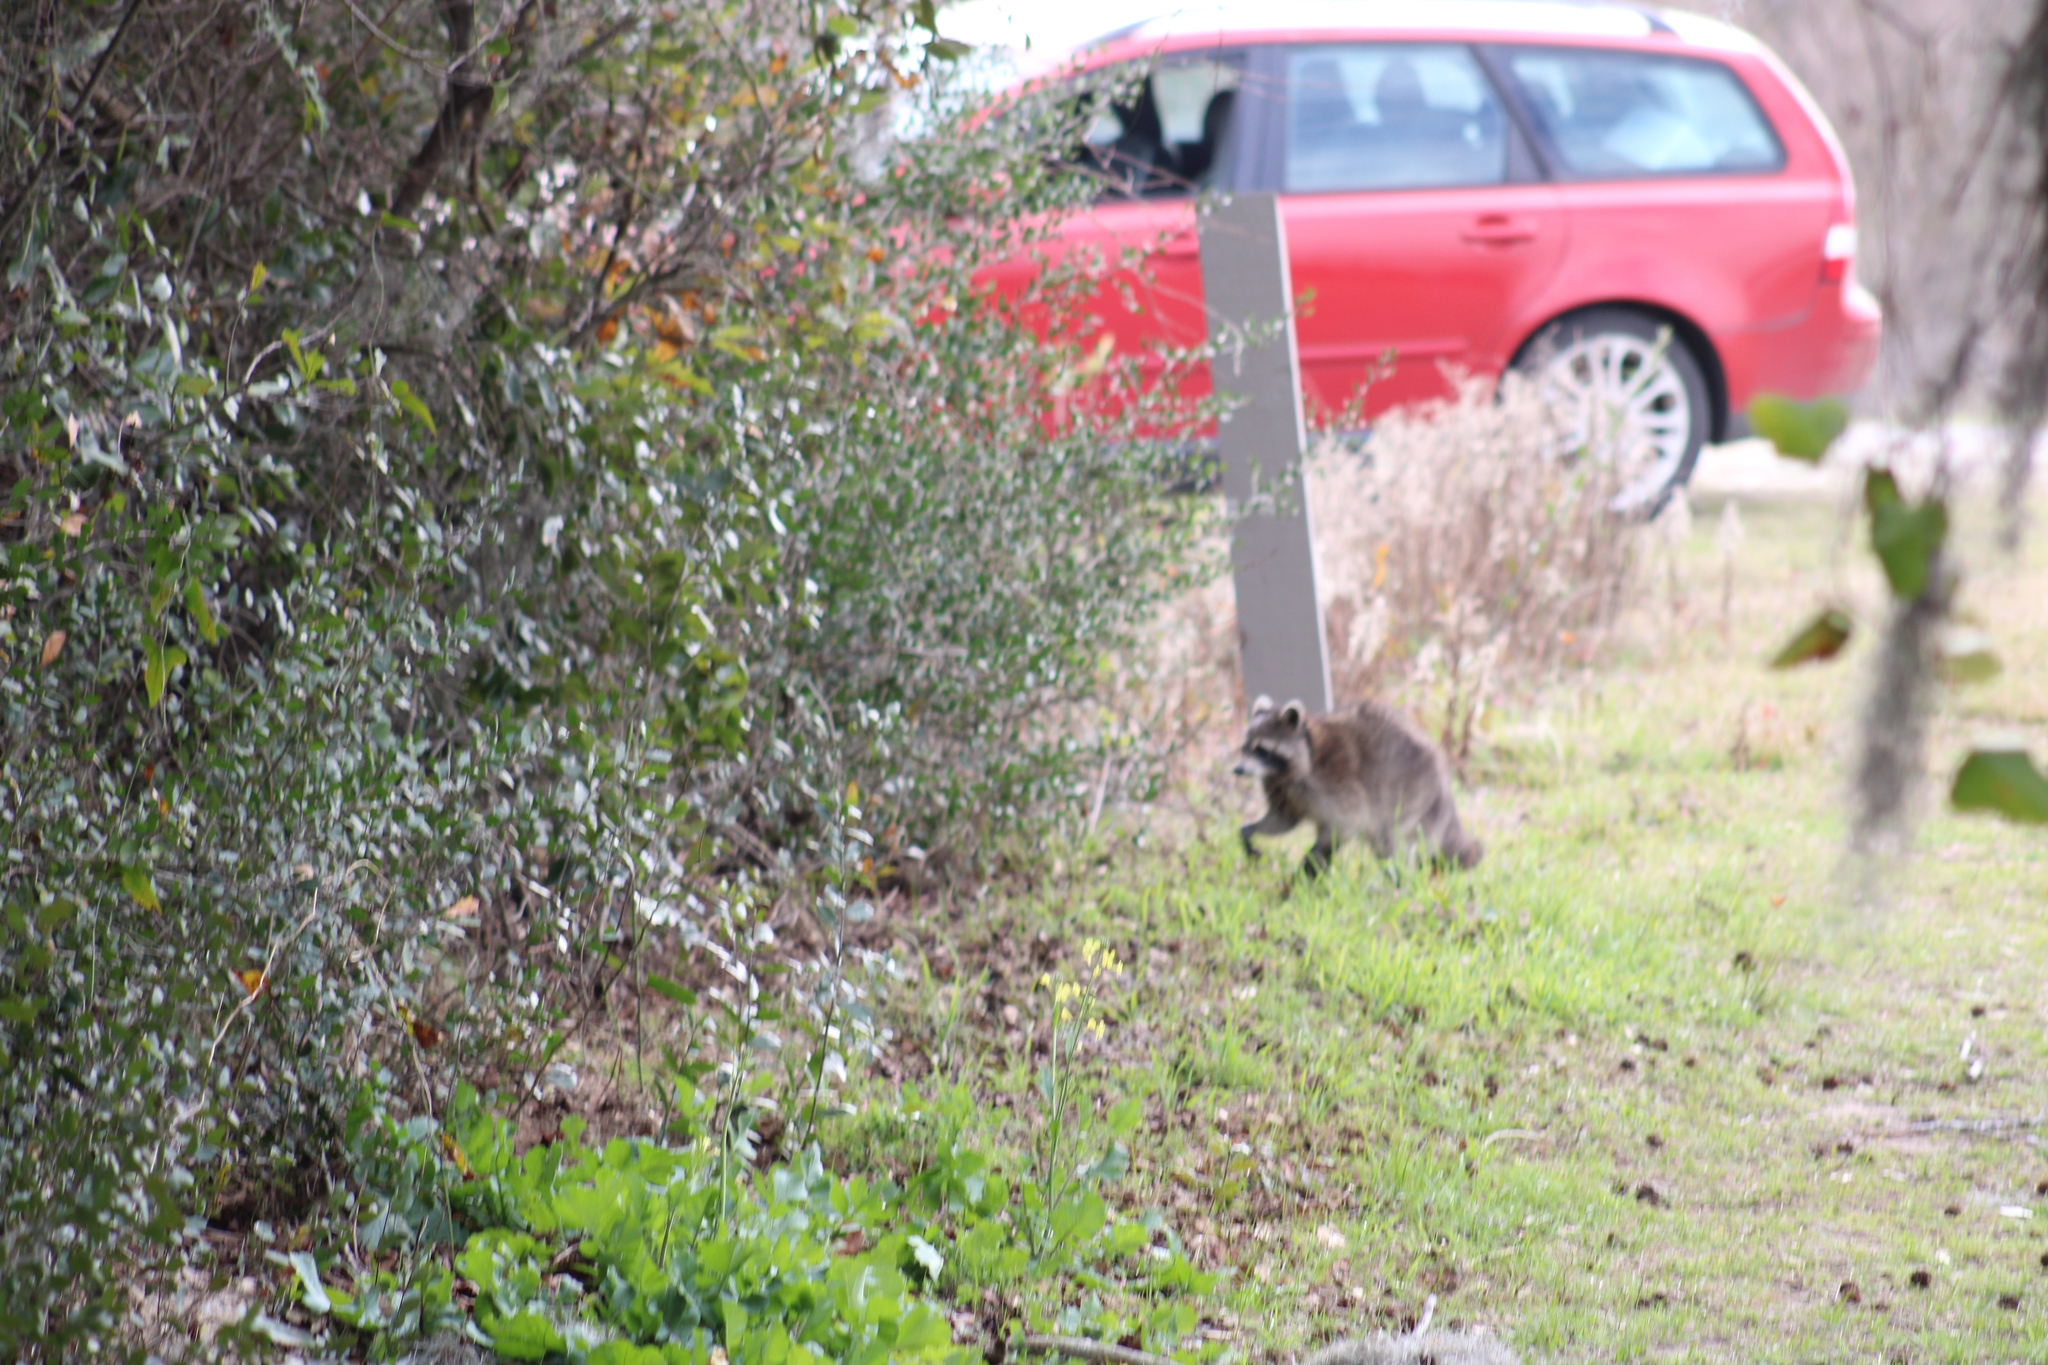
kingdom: Animalia
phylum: Chordata
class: Mammalia
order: Carnivora
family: Procyonidae
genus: Procyon
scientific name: Procyon lotor
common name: Raccoon
